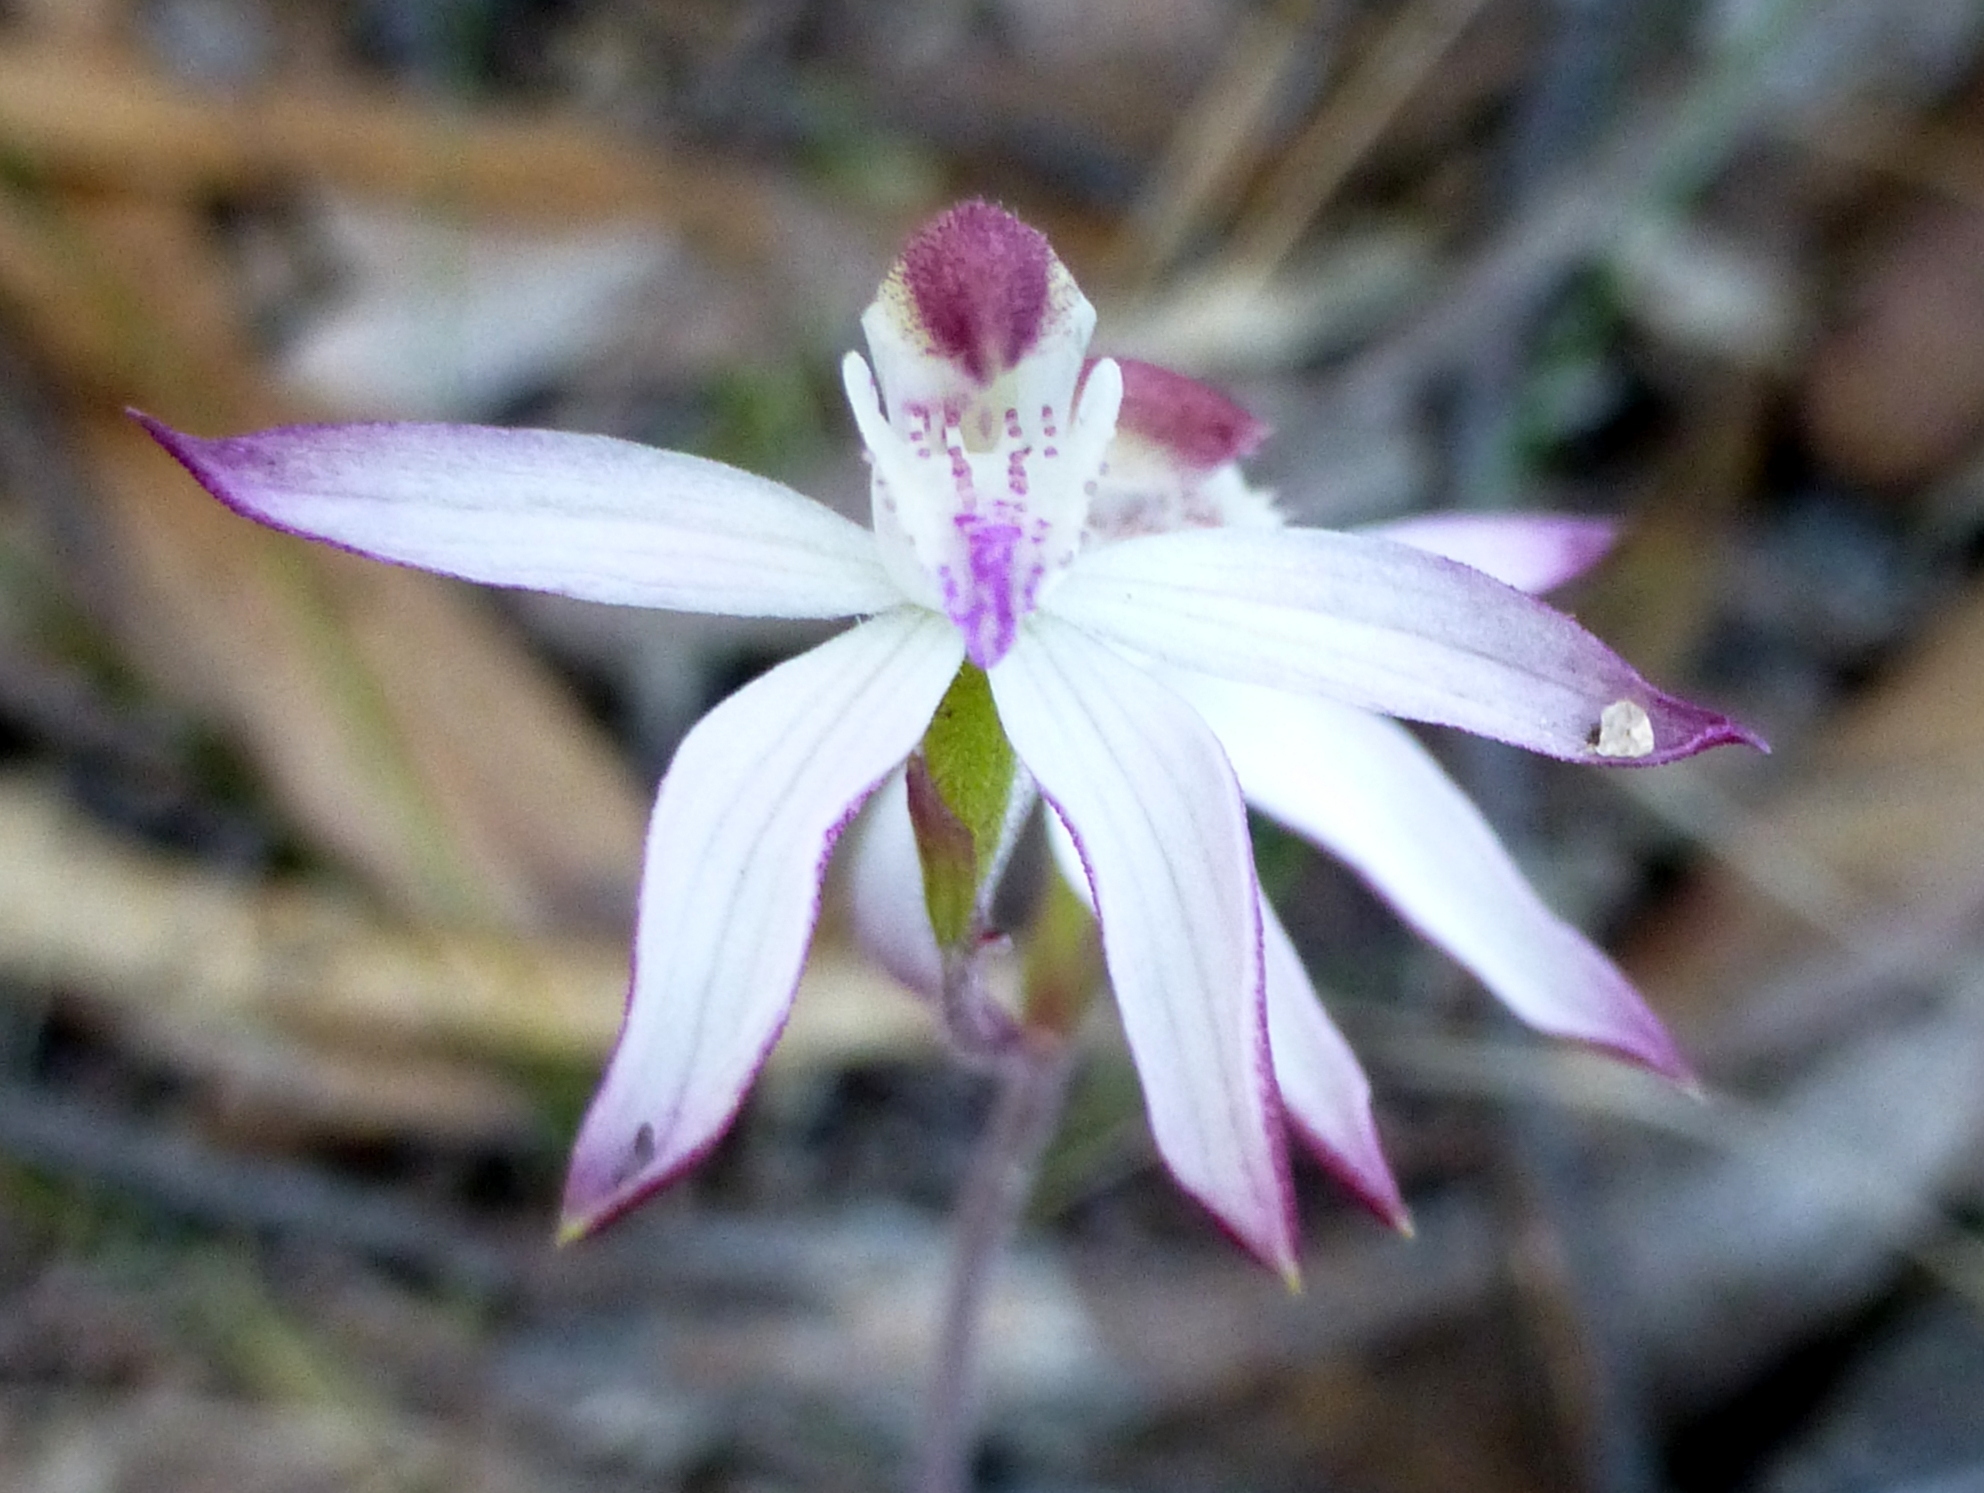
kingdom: Plantae
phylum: Tracheophyta
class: Liliopsida
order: Asparagales
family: Orchidaceae
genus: Caladenia
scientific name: Caladenia moschata
